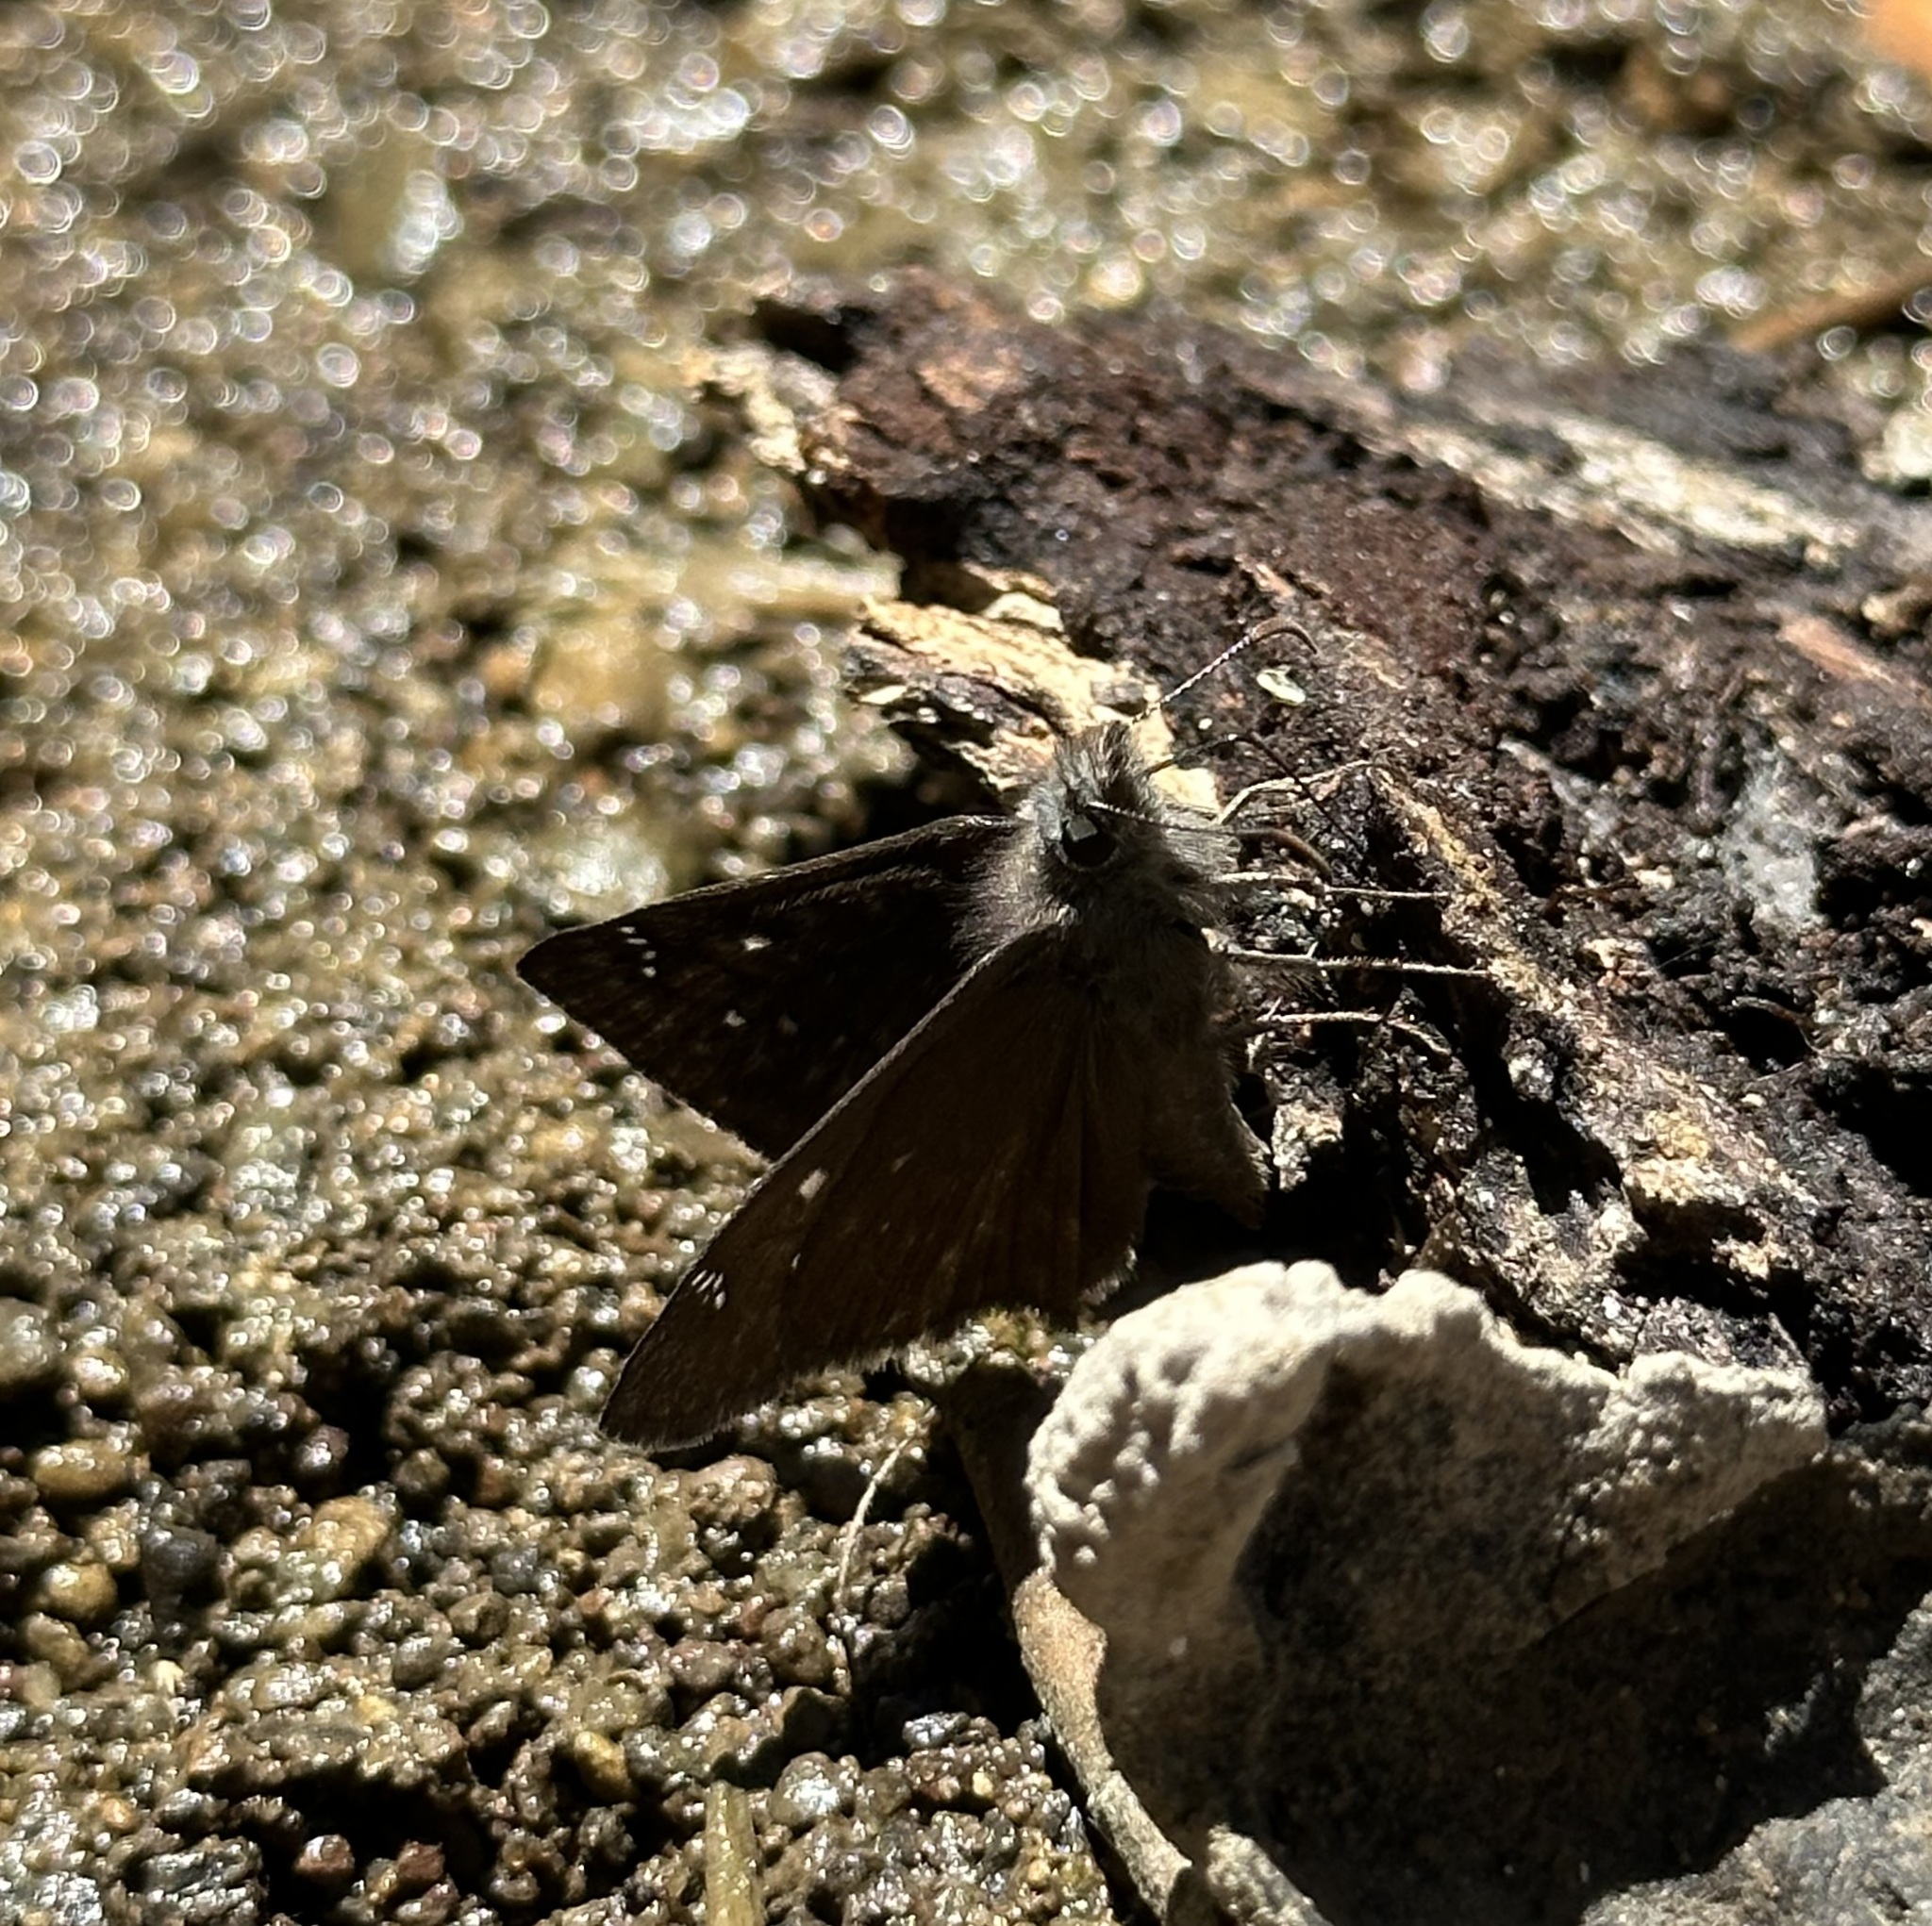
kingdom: Animalia
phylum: Arthropoda
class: Insecta
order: Lepidoptera
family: Hesperiidae
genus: Erynnis
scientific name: Erynnis propertius
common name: Propertius duskywing
